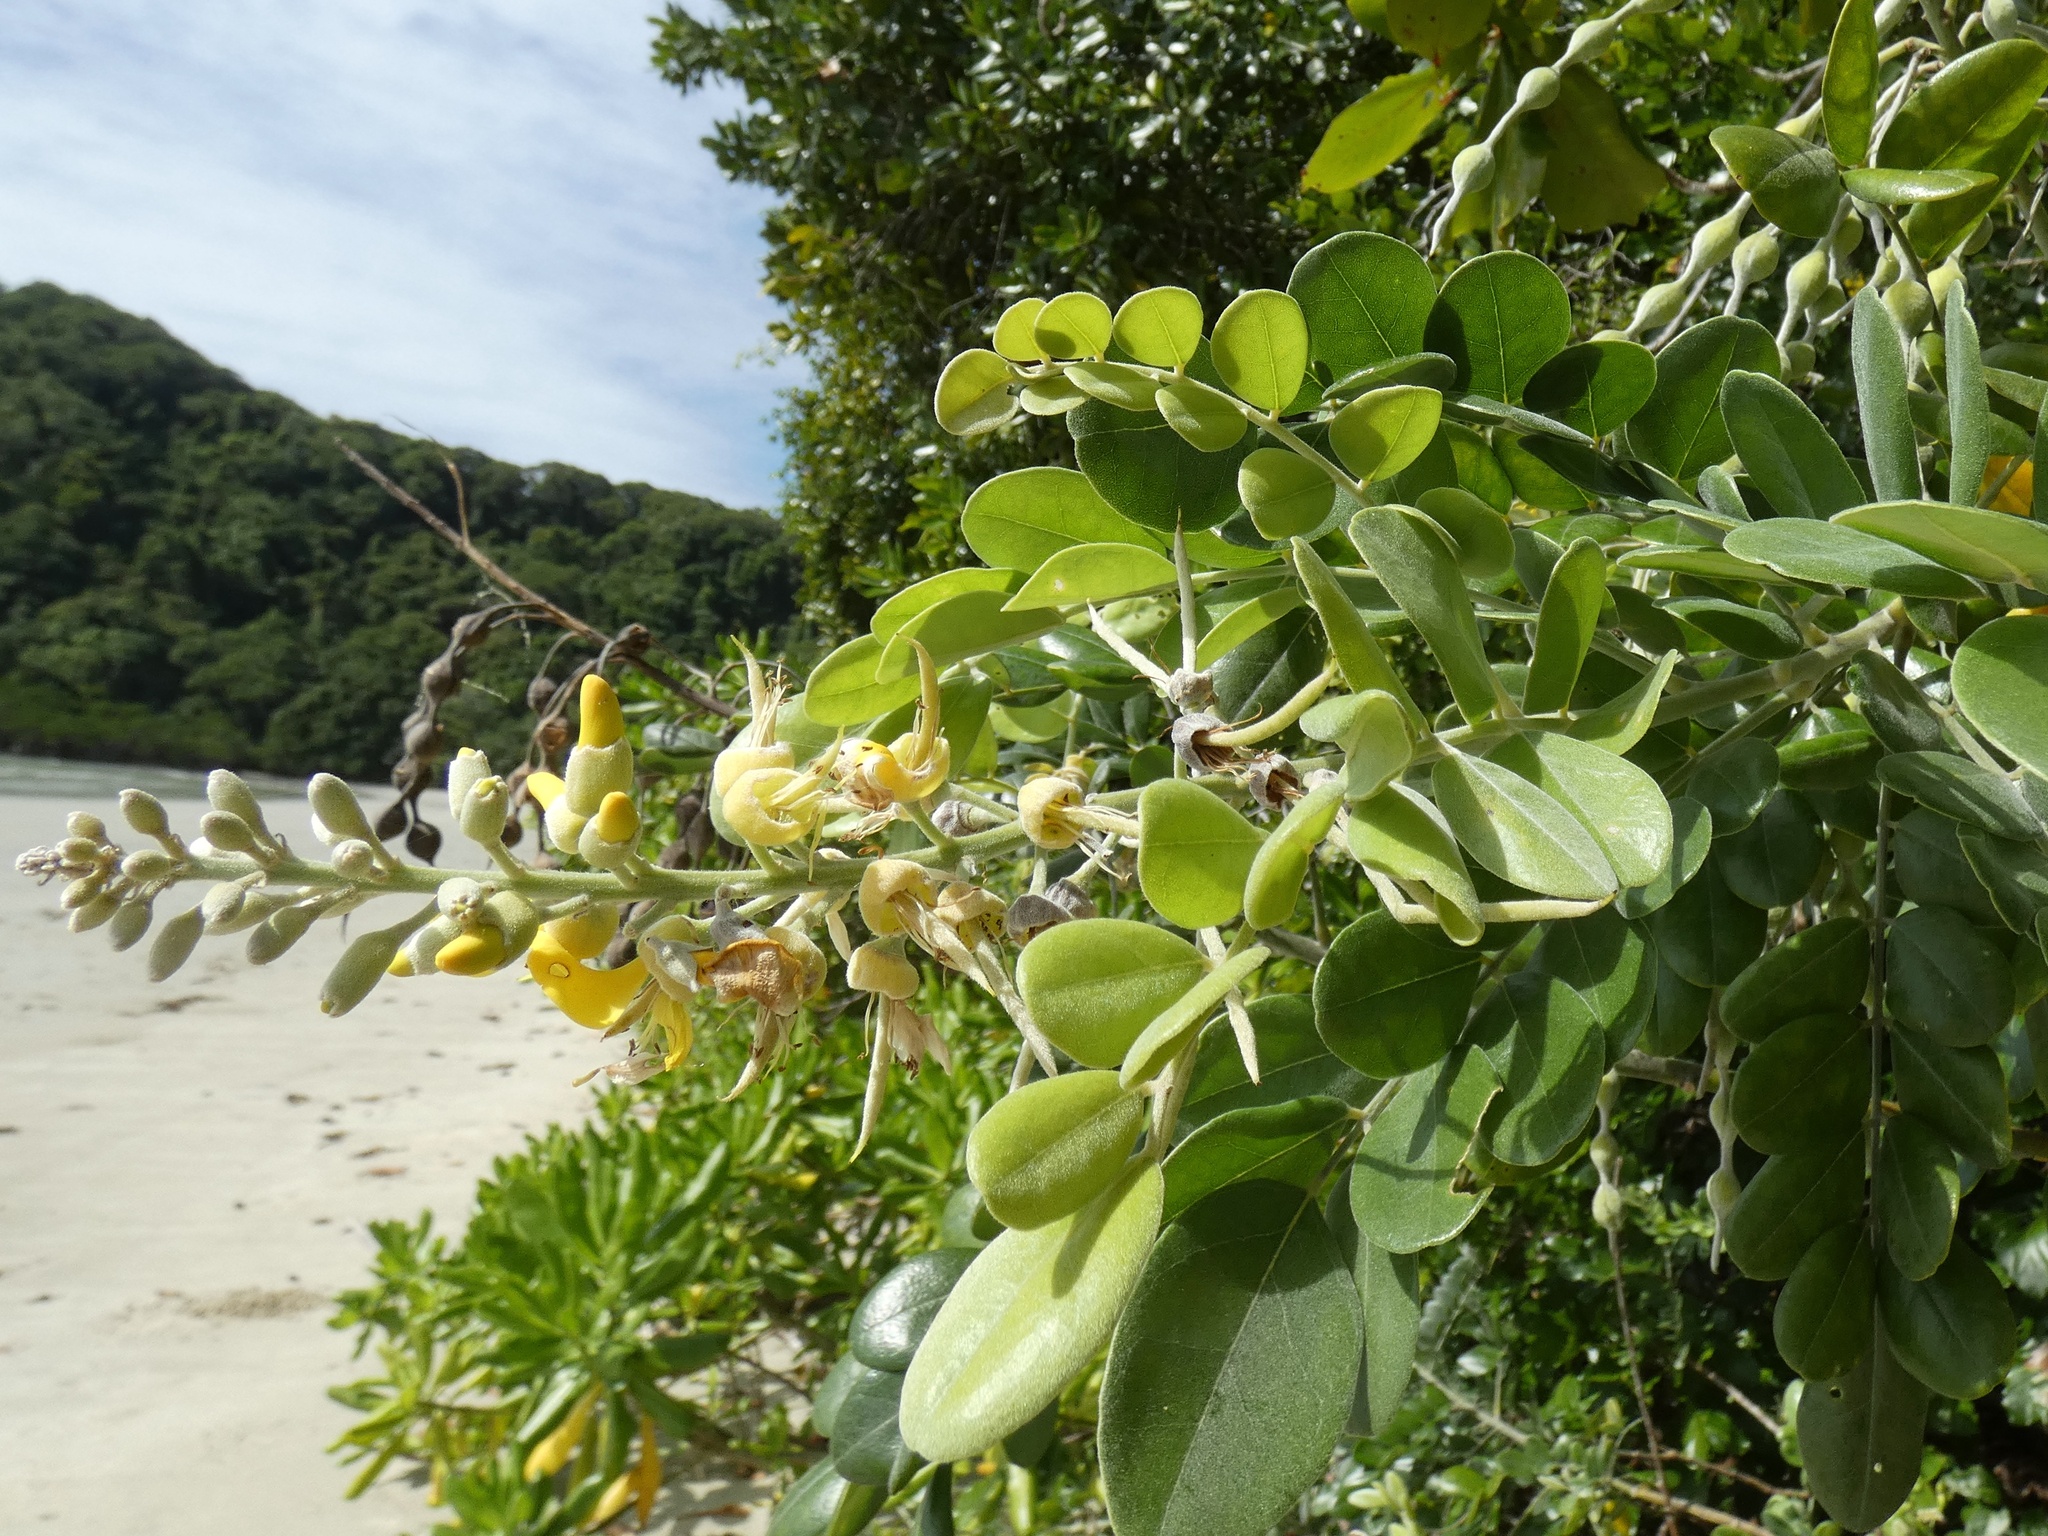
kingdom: Plantae
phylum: Tracheophyta
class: Magnoliopsida
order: Fabales
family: Fabaceae
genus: Sophora
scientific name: Sophora tomentosa
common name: Yellow necklacepod
